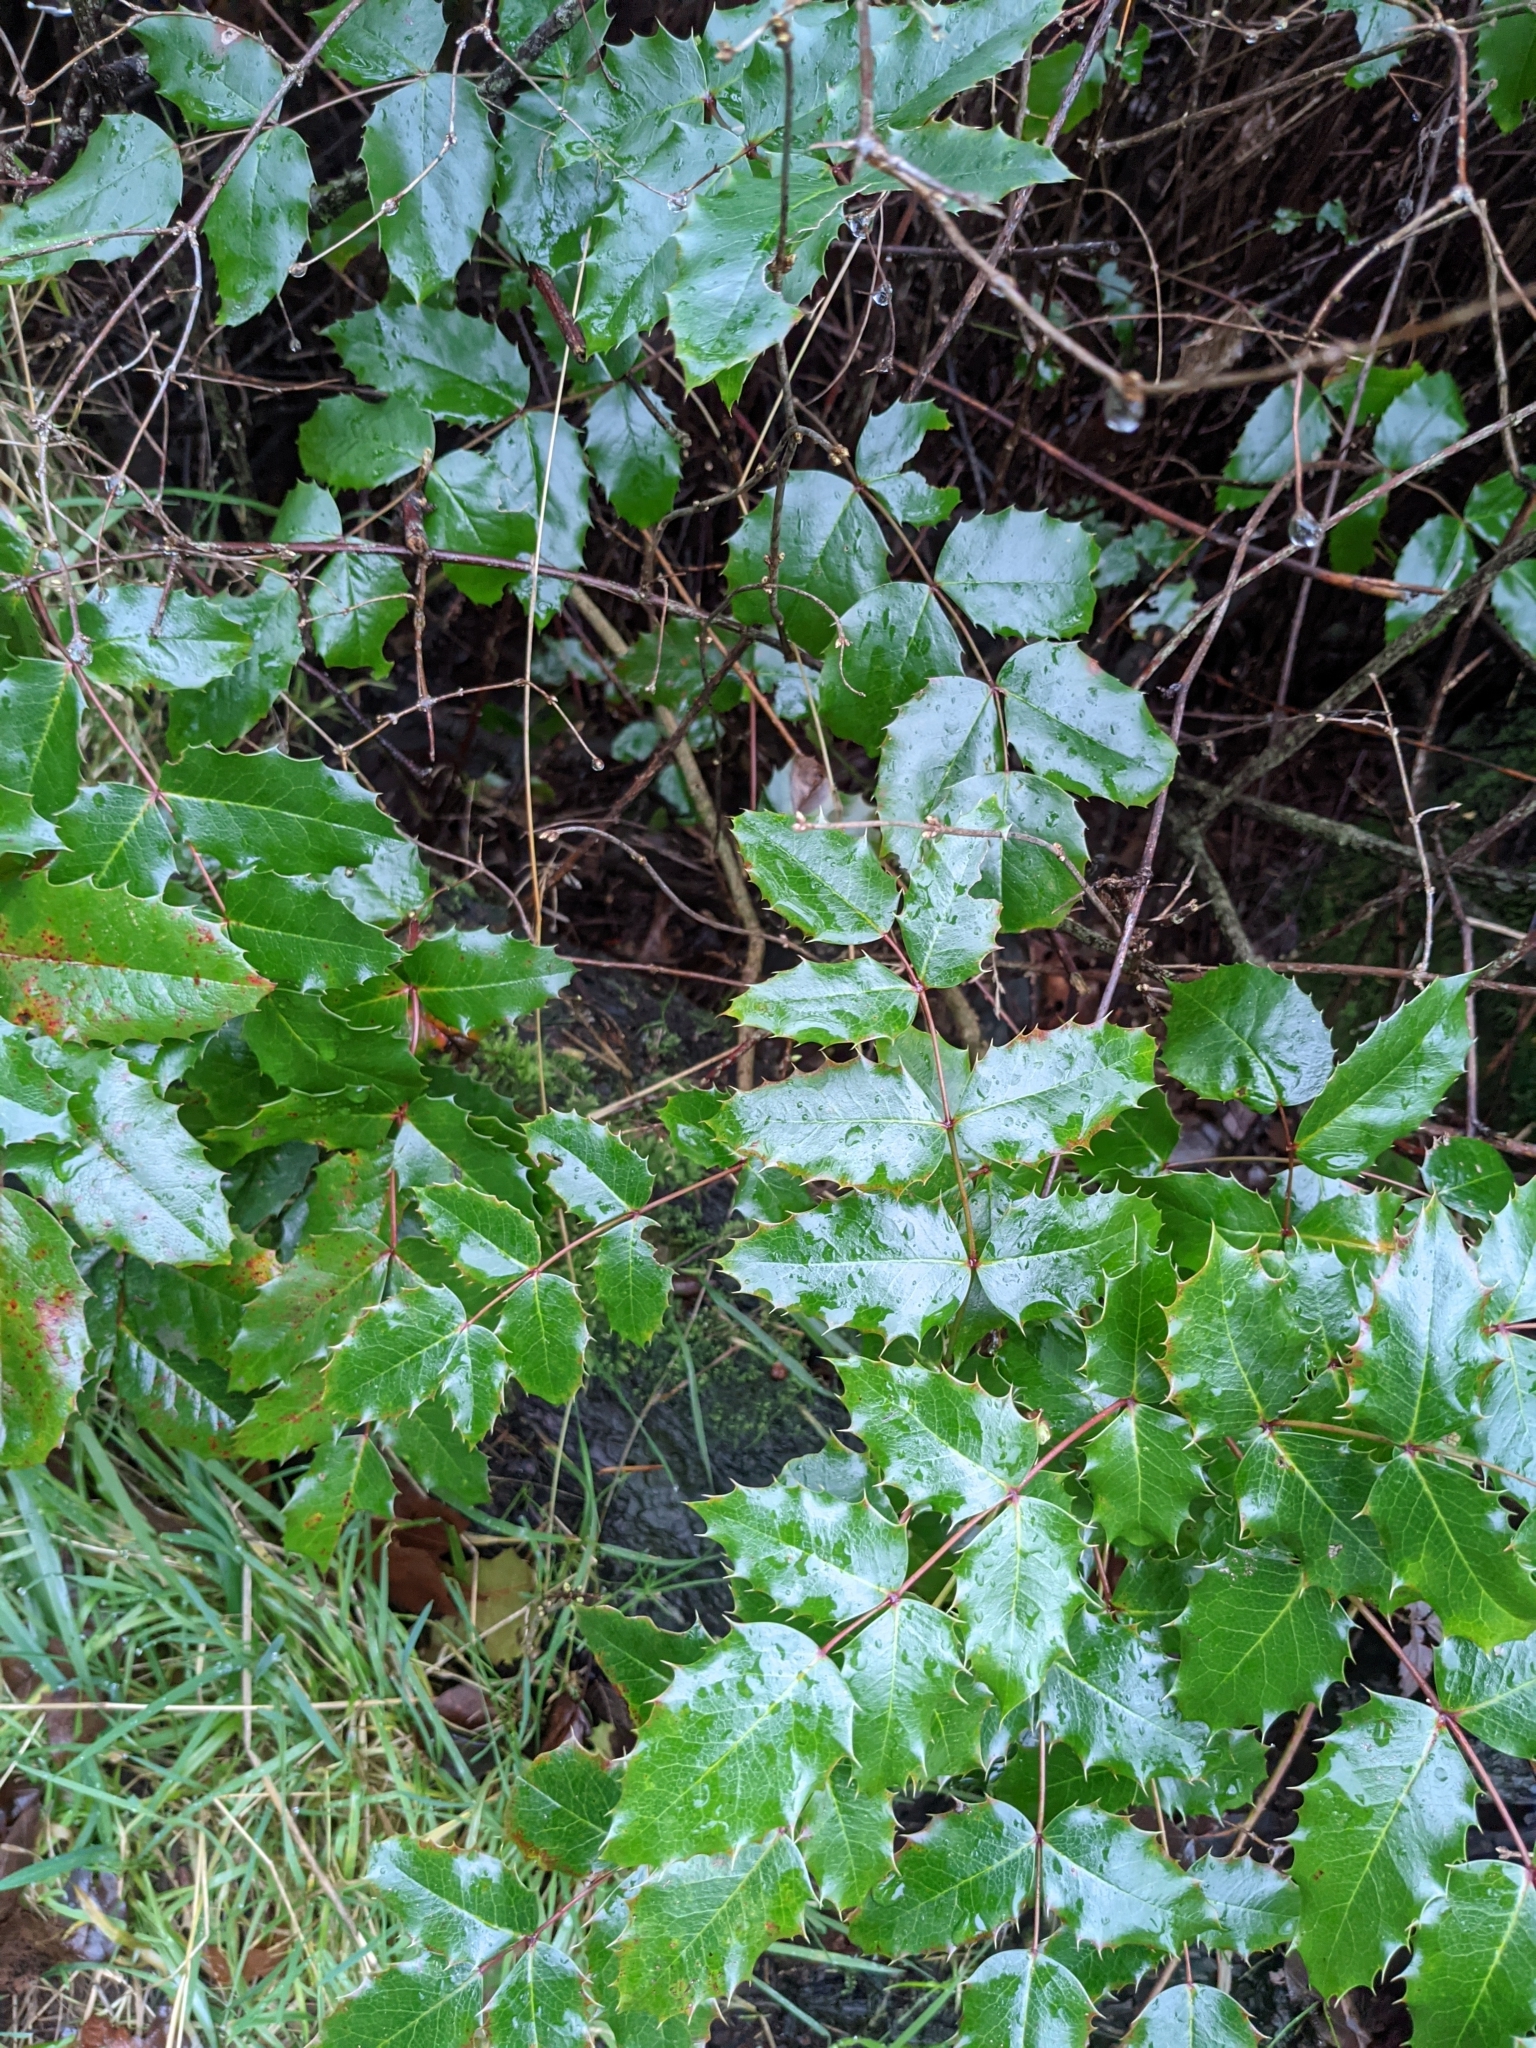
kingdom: Plantae
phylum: Tracheophyta
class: Magnoliopsida
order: Ranunculales
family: Berberidaceae
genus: Mahonia
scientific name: Mahonia aquifolium
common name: Oregon-grape
